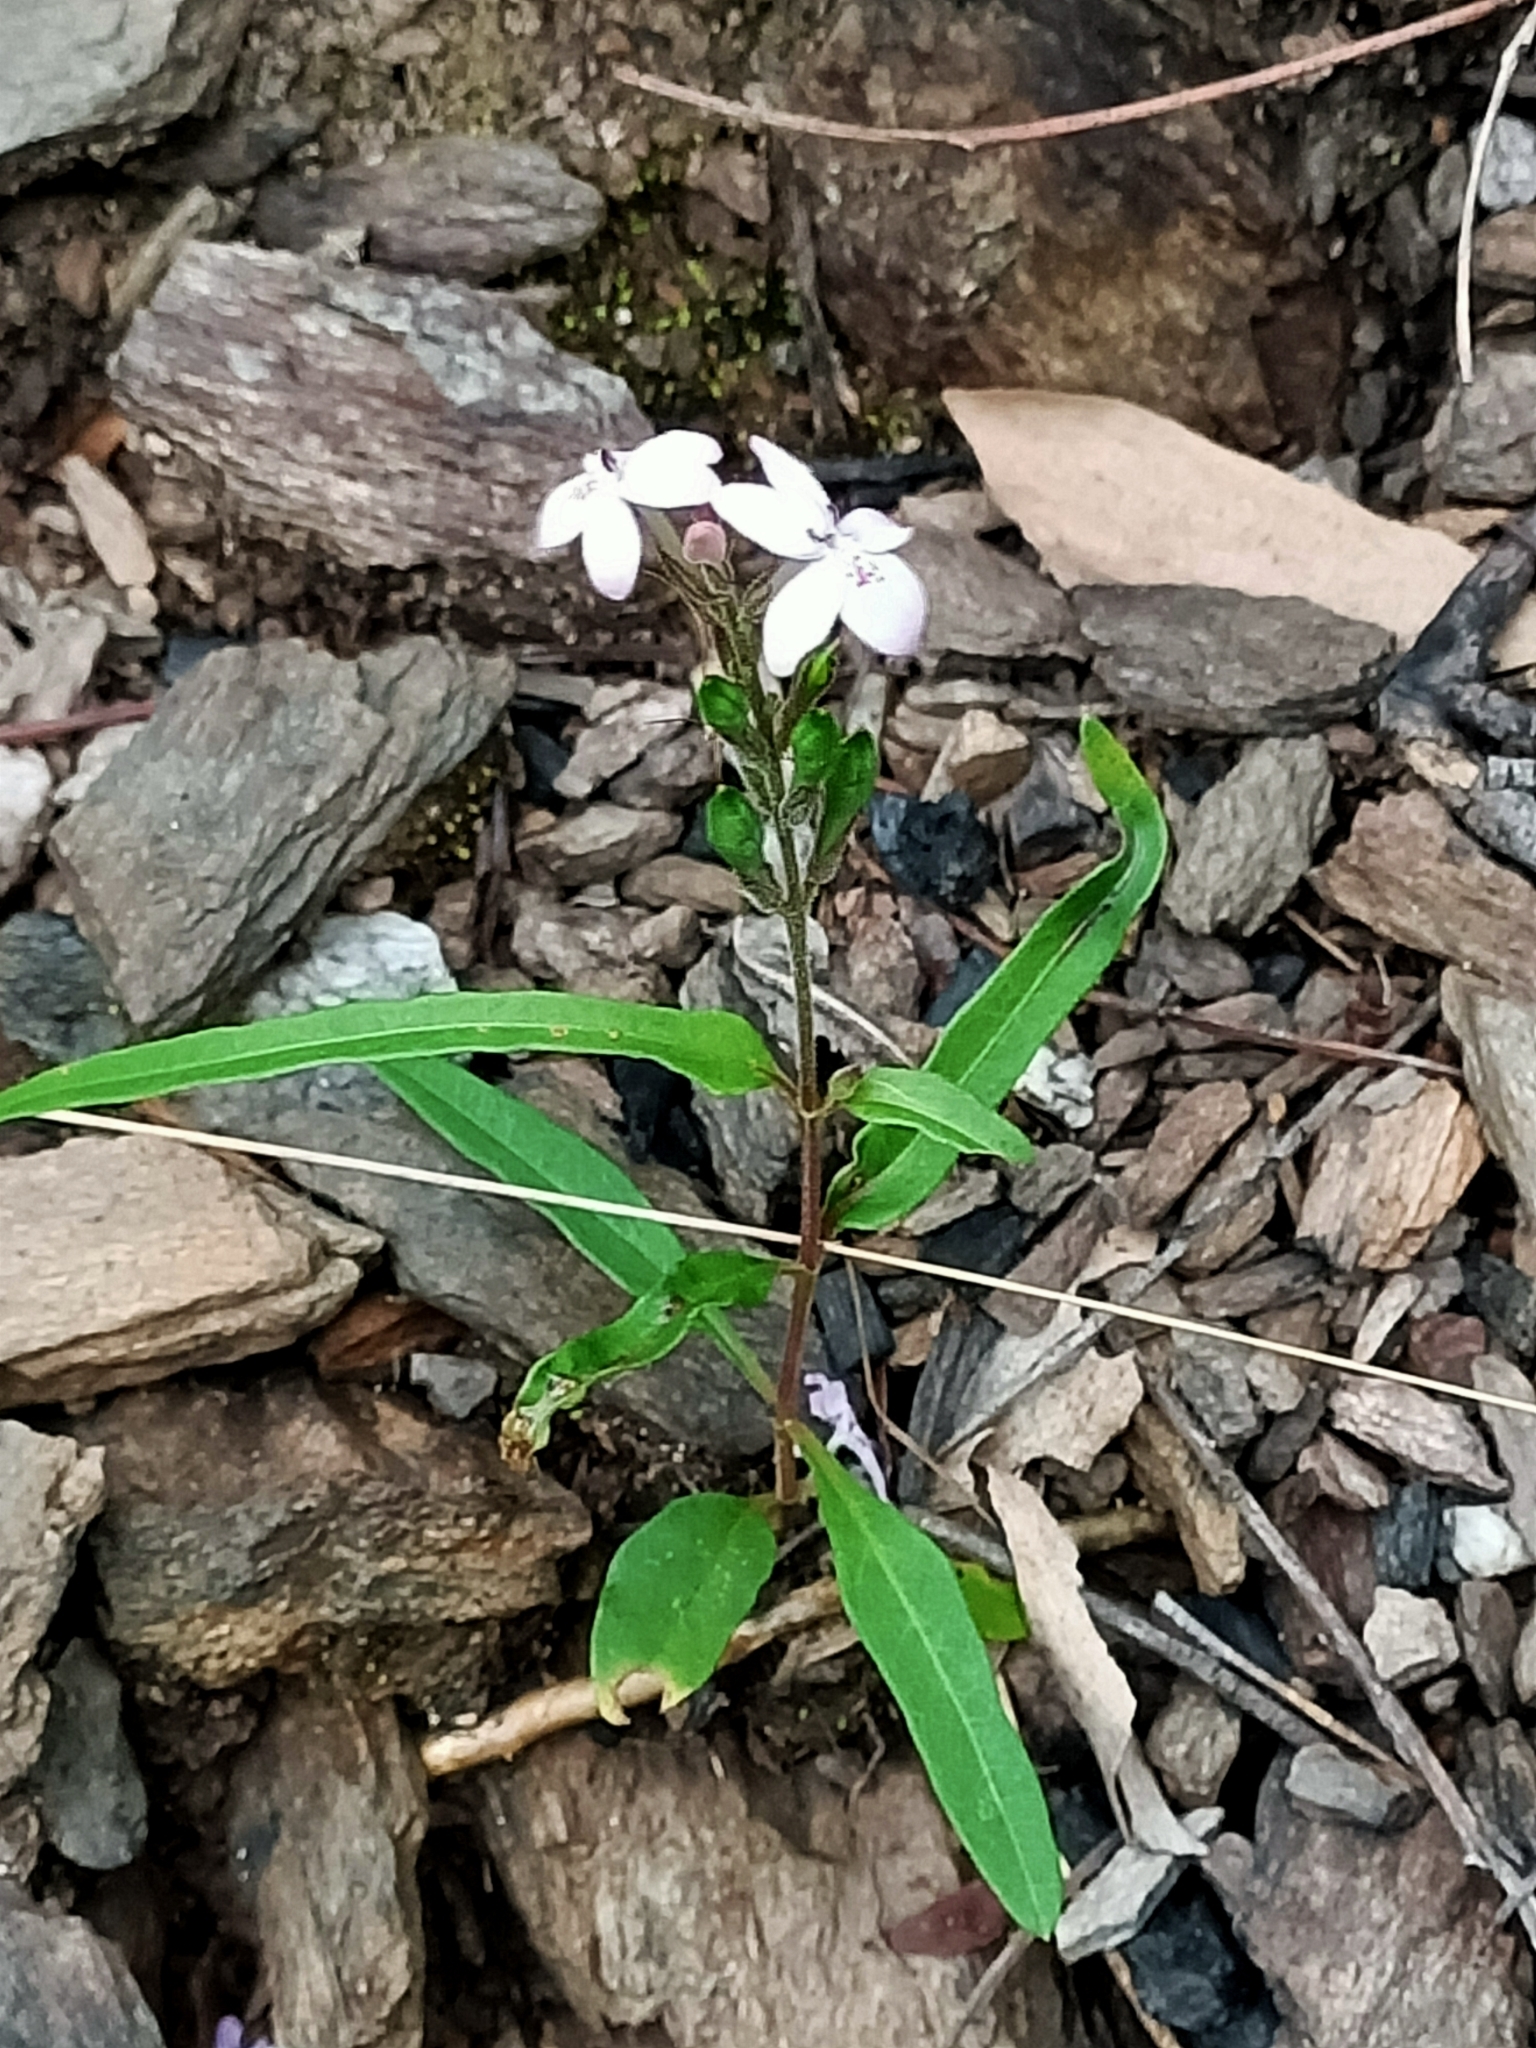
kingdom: Plantae
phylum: Tracheophyta
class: Magnoliopsida
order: Lamiales
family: Acanthaceae
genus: Pseuderanthemum
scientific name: Pseuderanthemum variabile
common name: Night and afternoon
